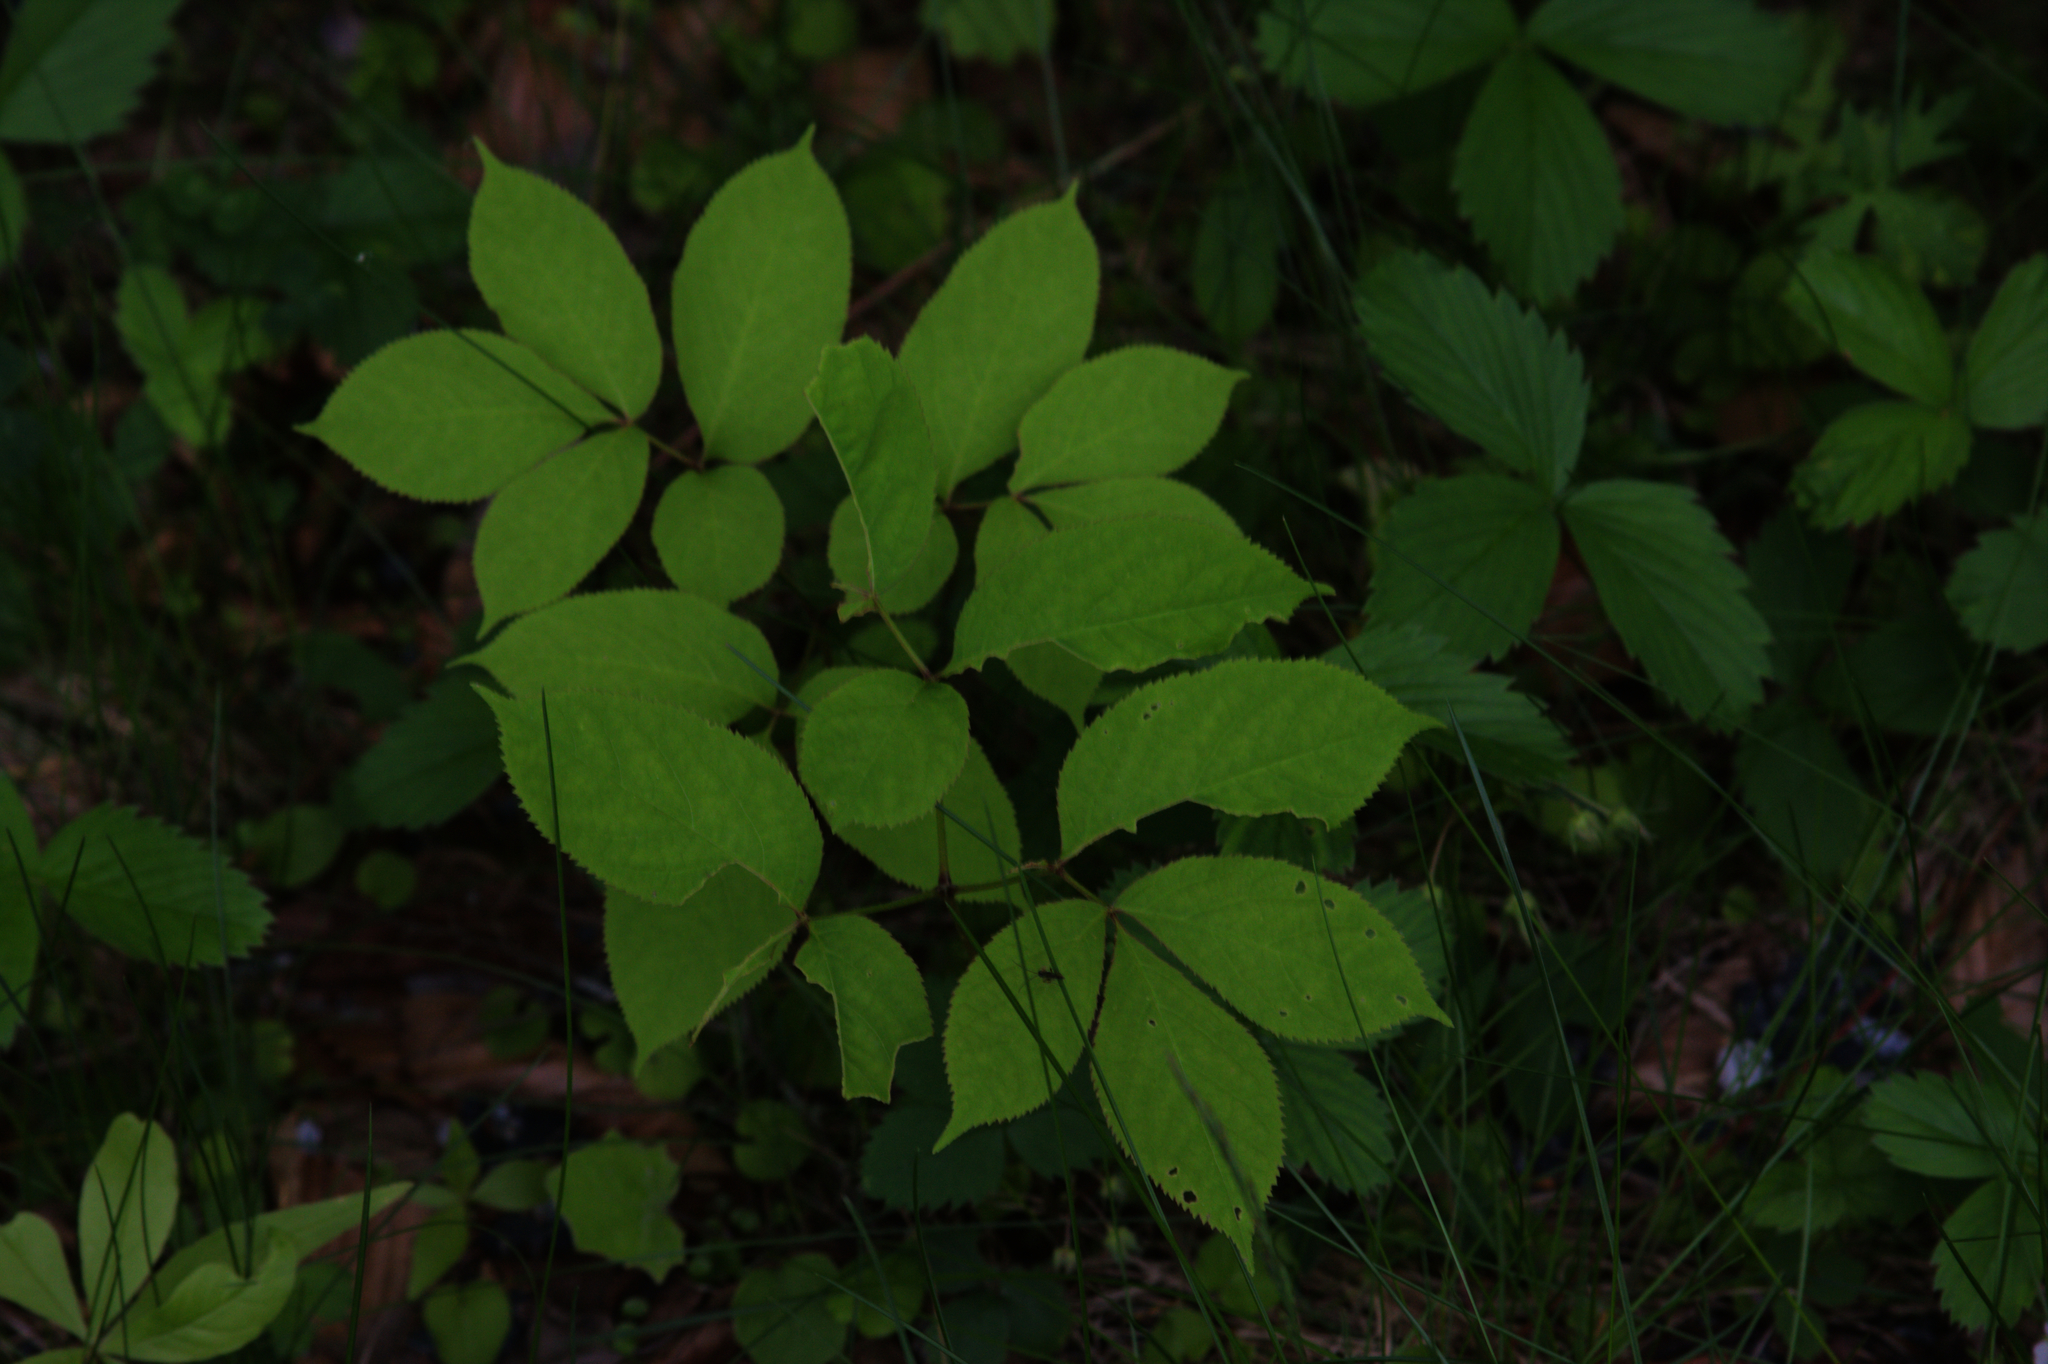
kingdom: Plantae
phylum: Tracheophyta
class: Magnoliopsida
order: Apiales
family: Araliaceae
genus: Aralia
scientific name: Aralia nudicaulis
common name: Wild sarsaparilla
